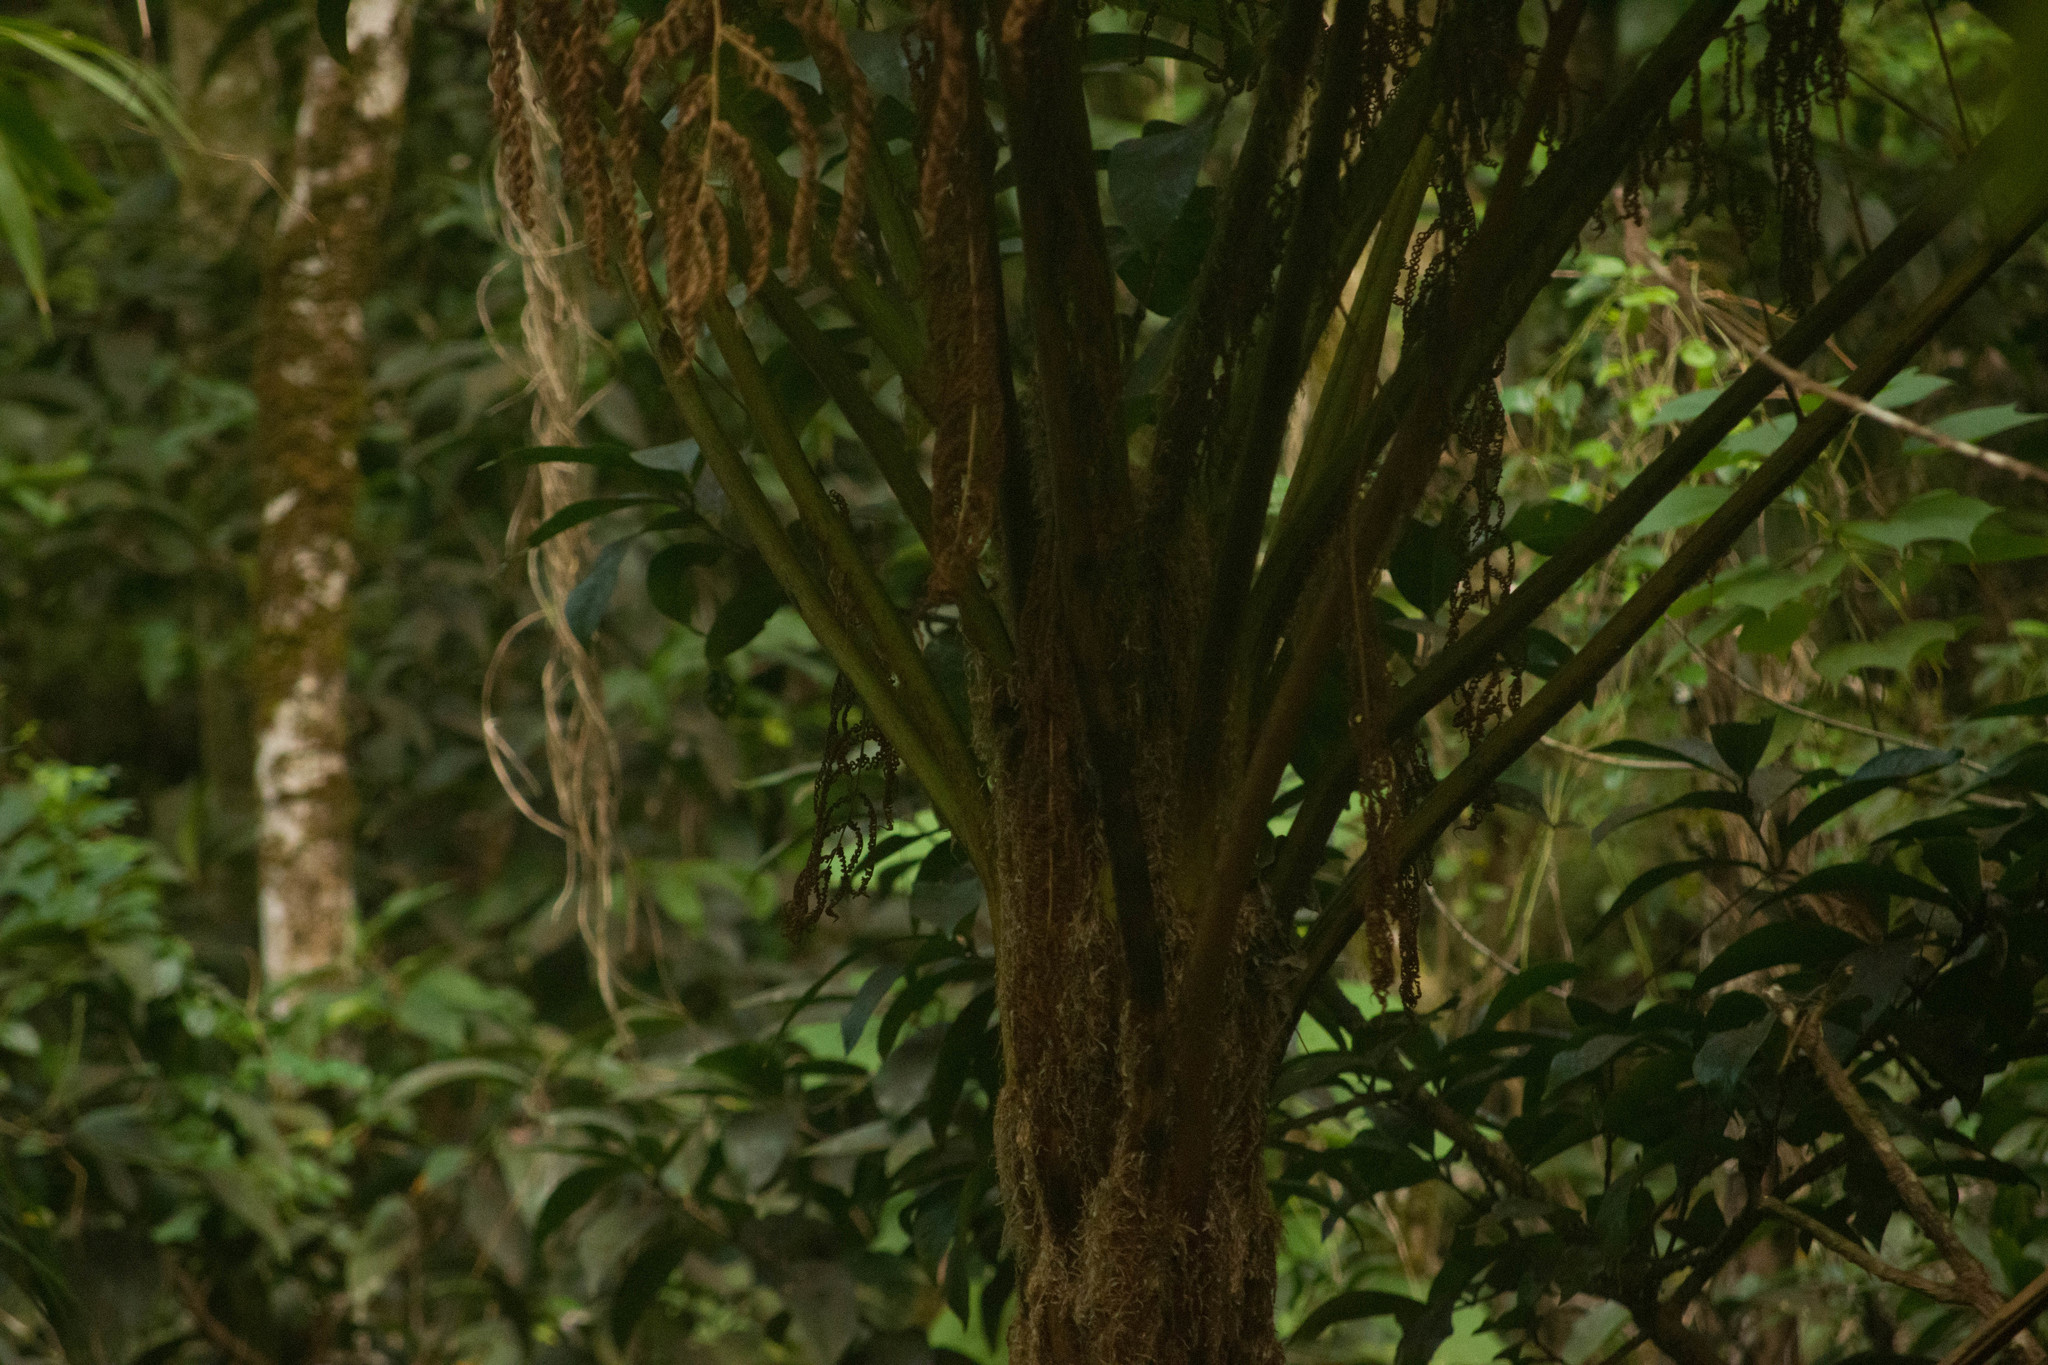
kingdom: Plantae
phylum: Tracheophyta
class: Polypodiopsida
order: Cyatheales
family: Cyatheaceae
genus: Sphaeropteris
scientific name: Sphaeropteris cooperi
